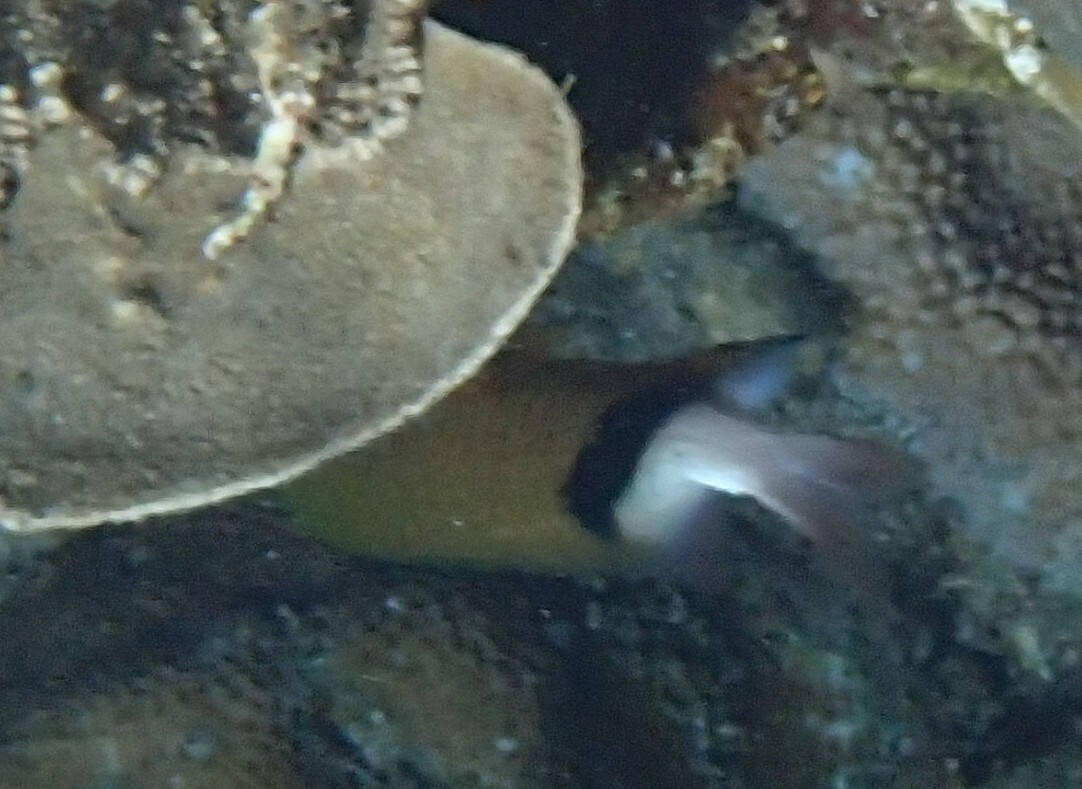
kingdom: Animalia
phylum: Chordata
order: Perciformes
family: Pomacentridae
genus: Plectroglyphidodon
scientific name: Plectroglyphidodon dickii
